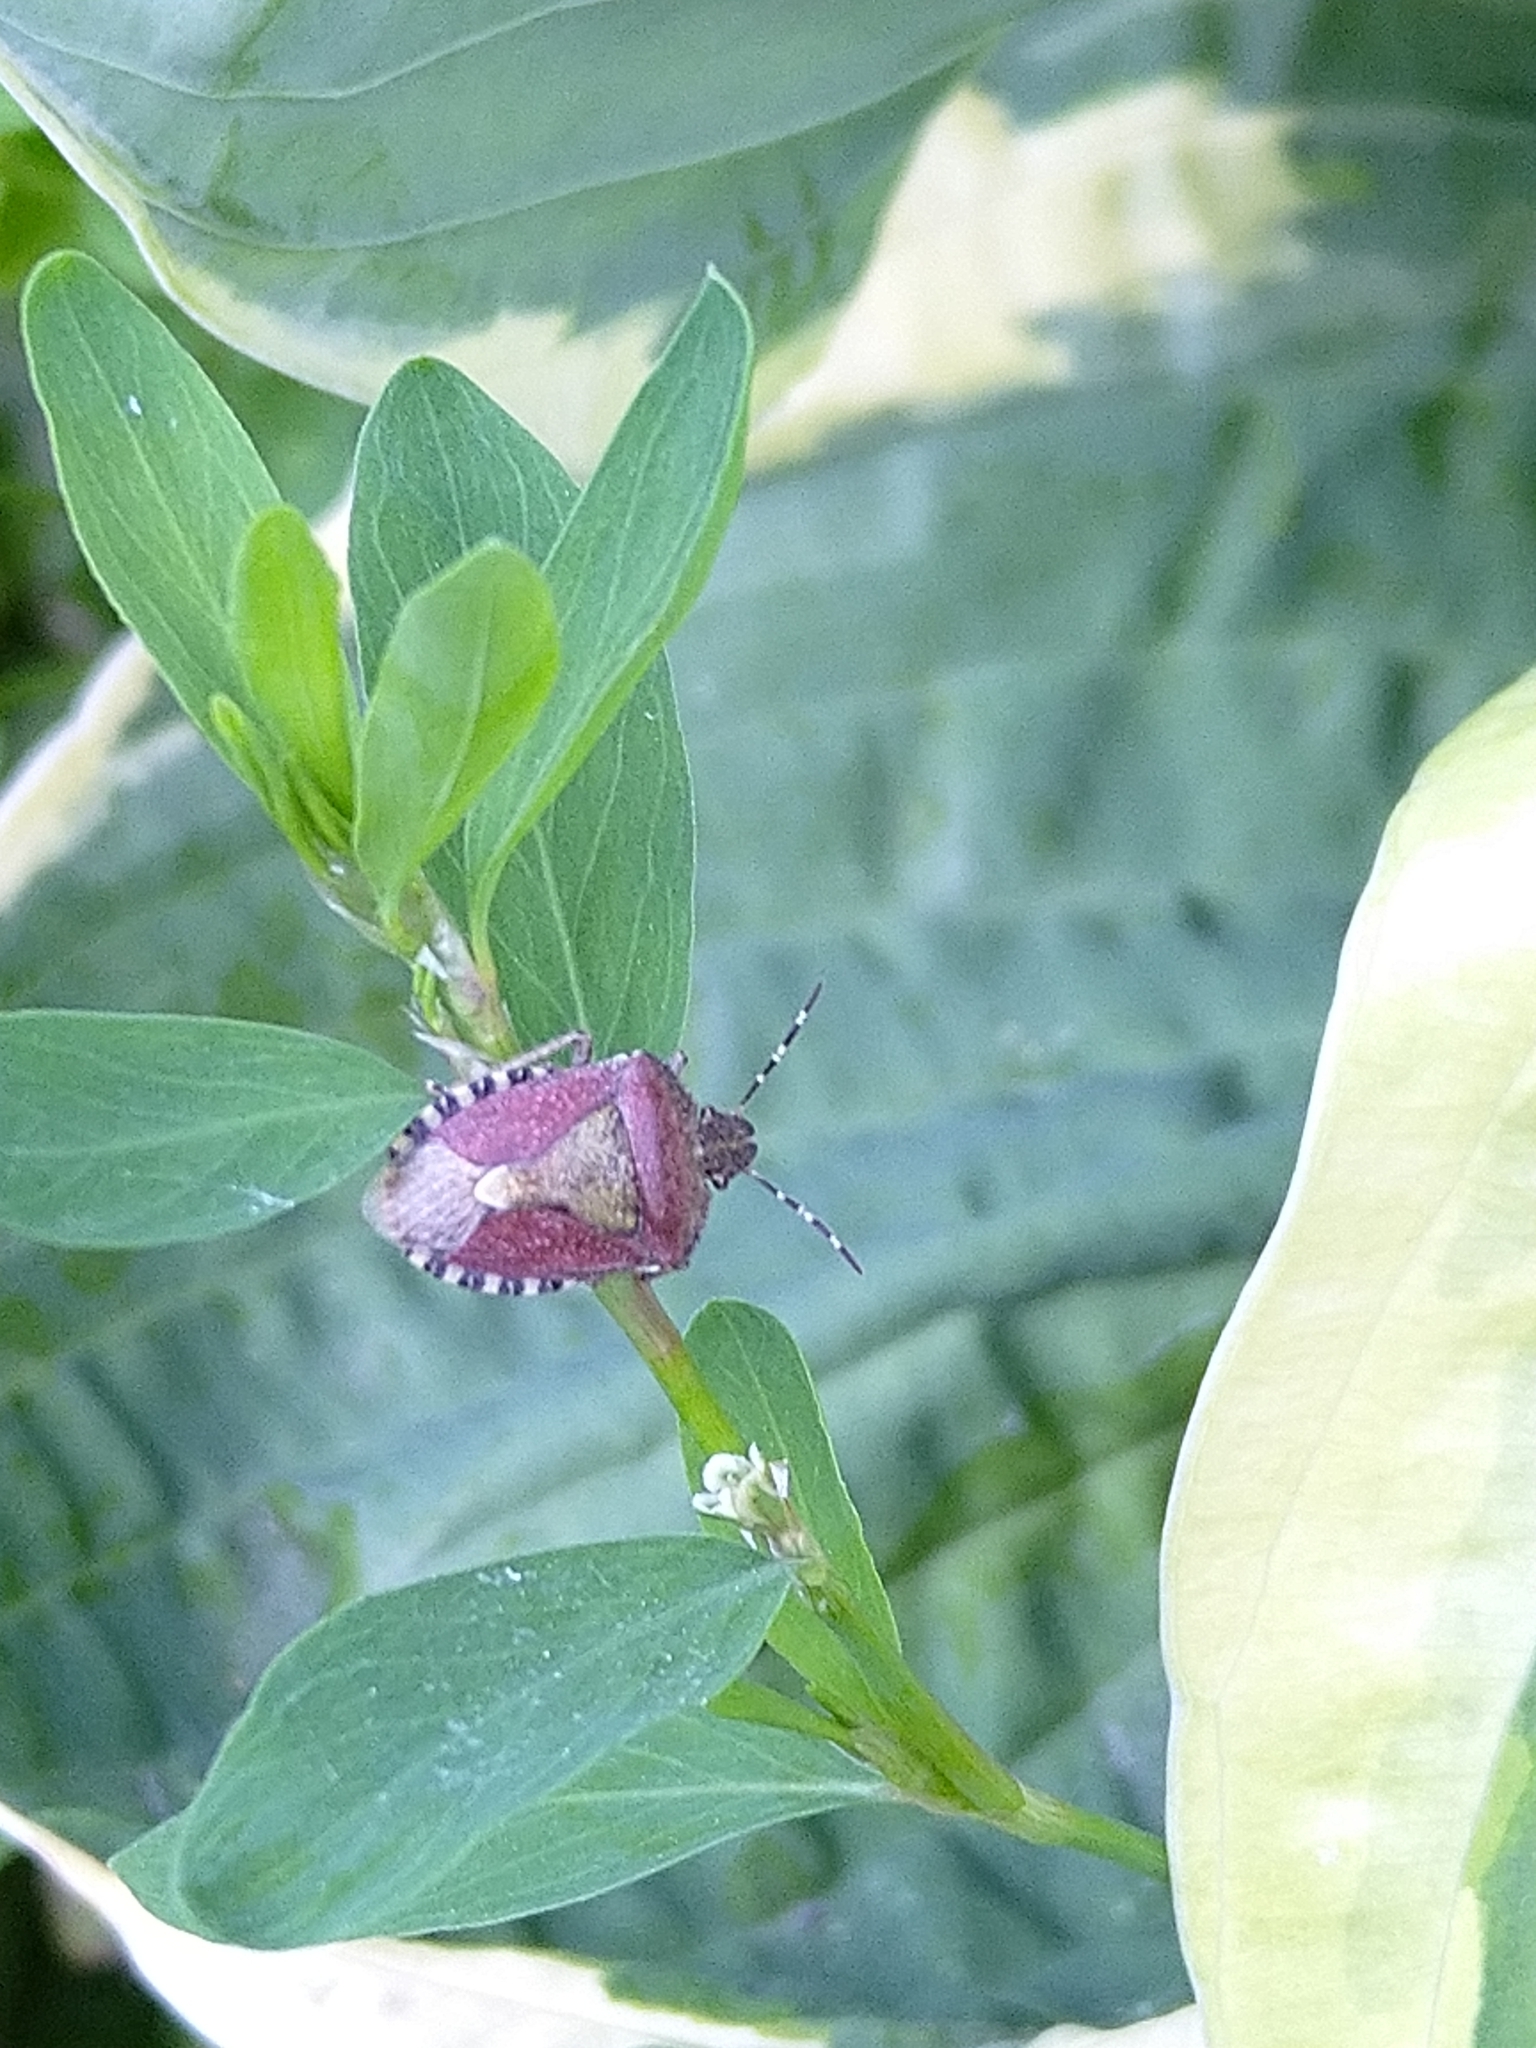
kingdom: Animalia
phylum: Arthropoda
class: Insecta
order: Hemiptera
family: Pentatomidae
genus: Dolycoris
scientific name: Dolycoris baccarum
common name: Sloe bug
